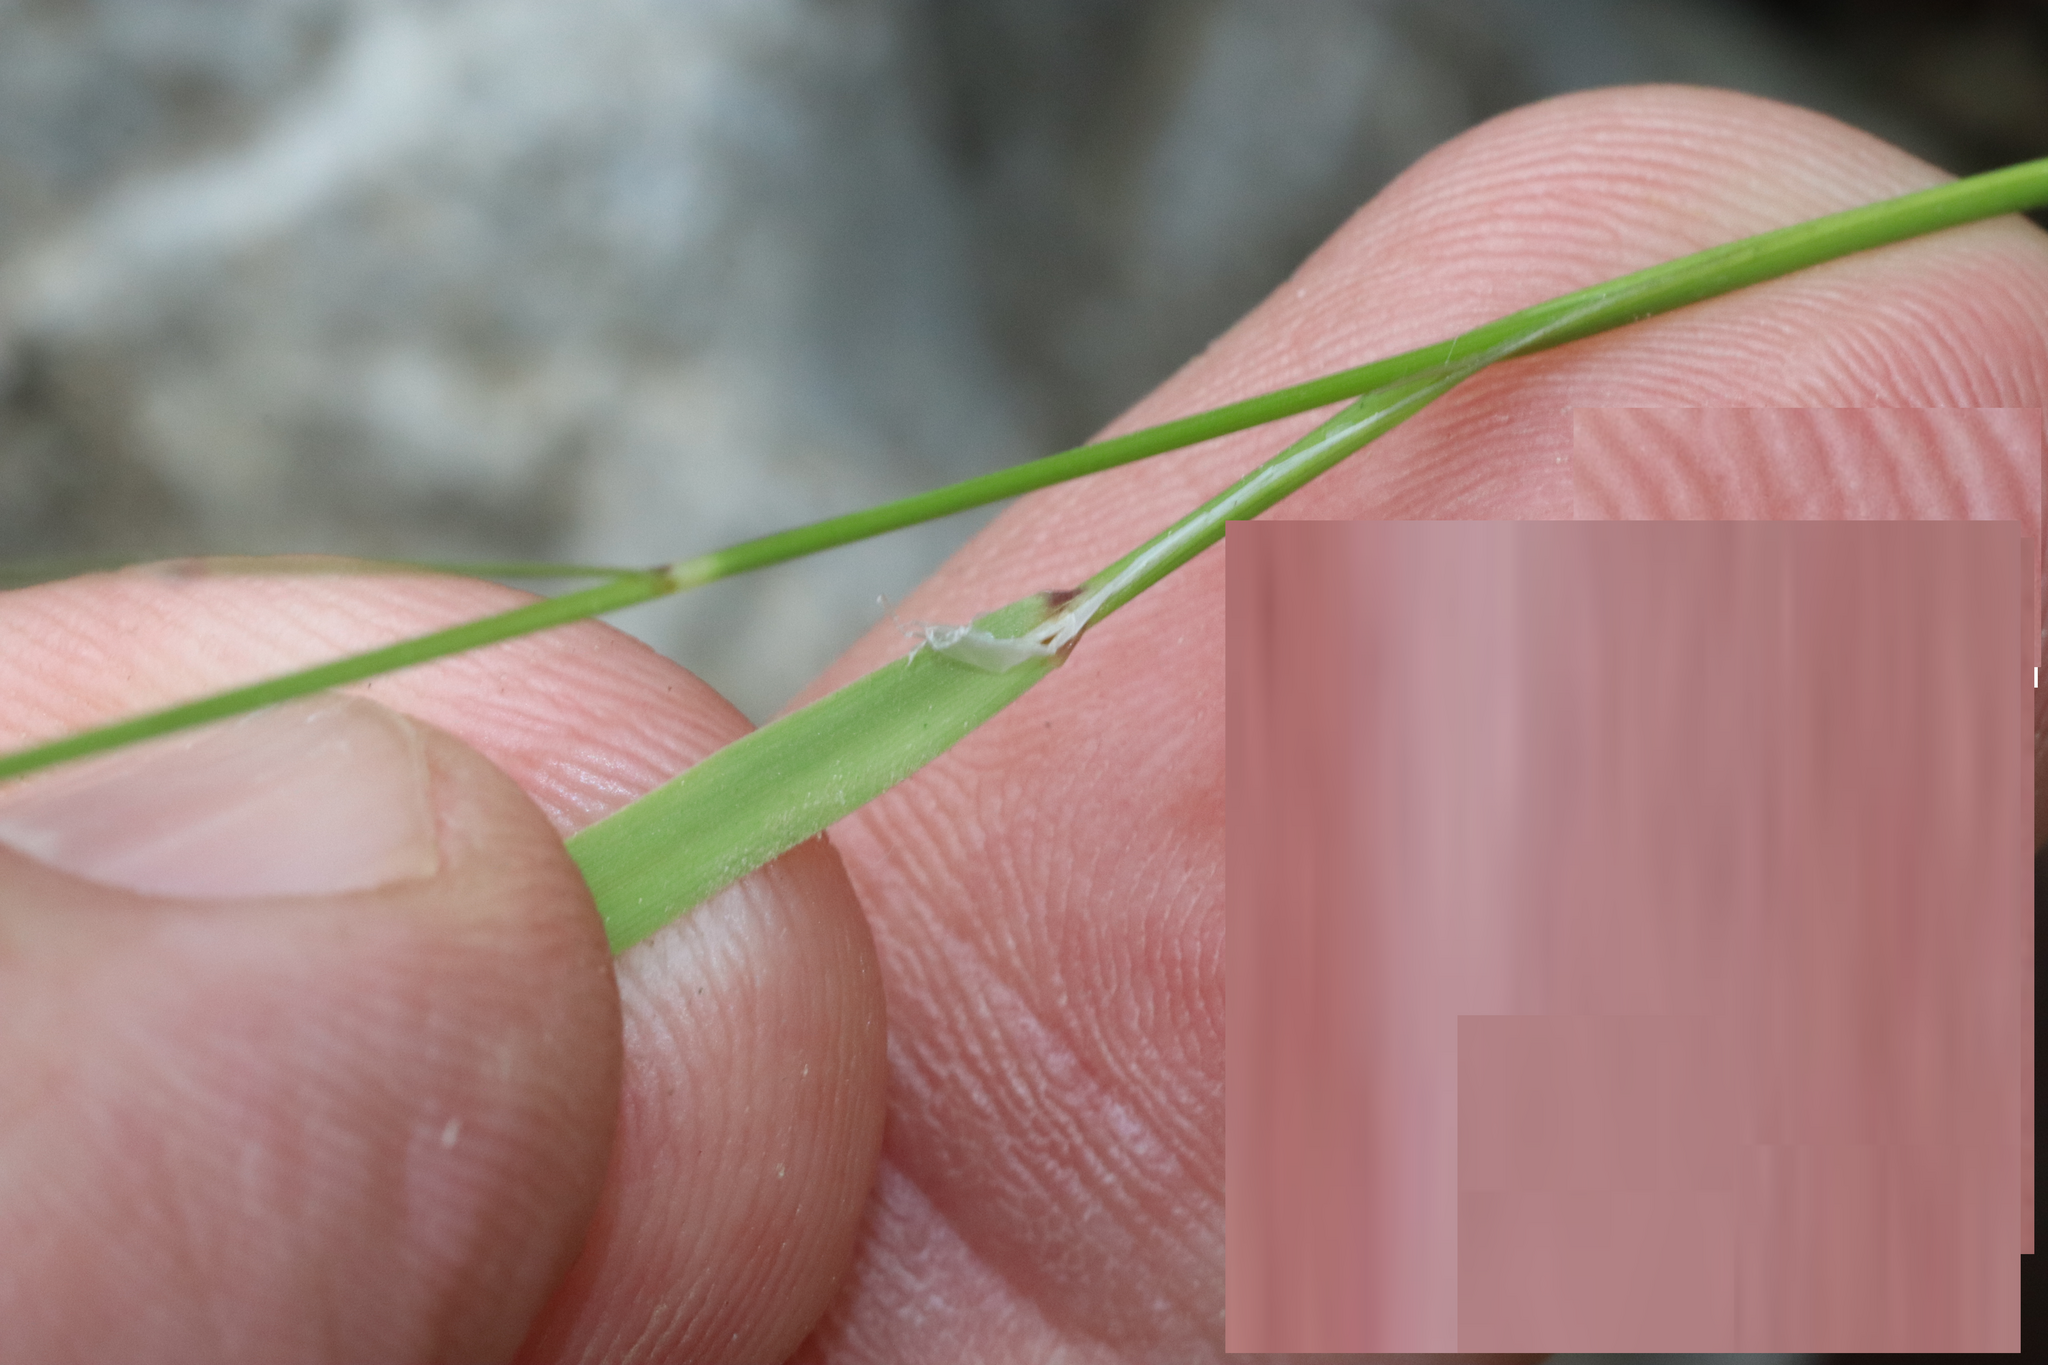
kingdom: Plantae
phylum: Tracheophyta
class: Liliopsida
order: Poales
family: Poaceae
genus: Melica
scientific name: Melica minuta
